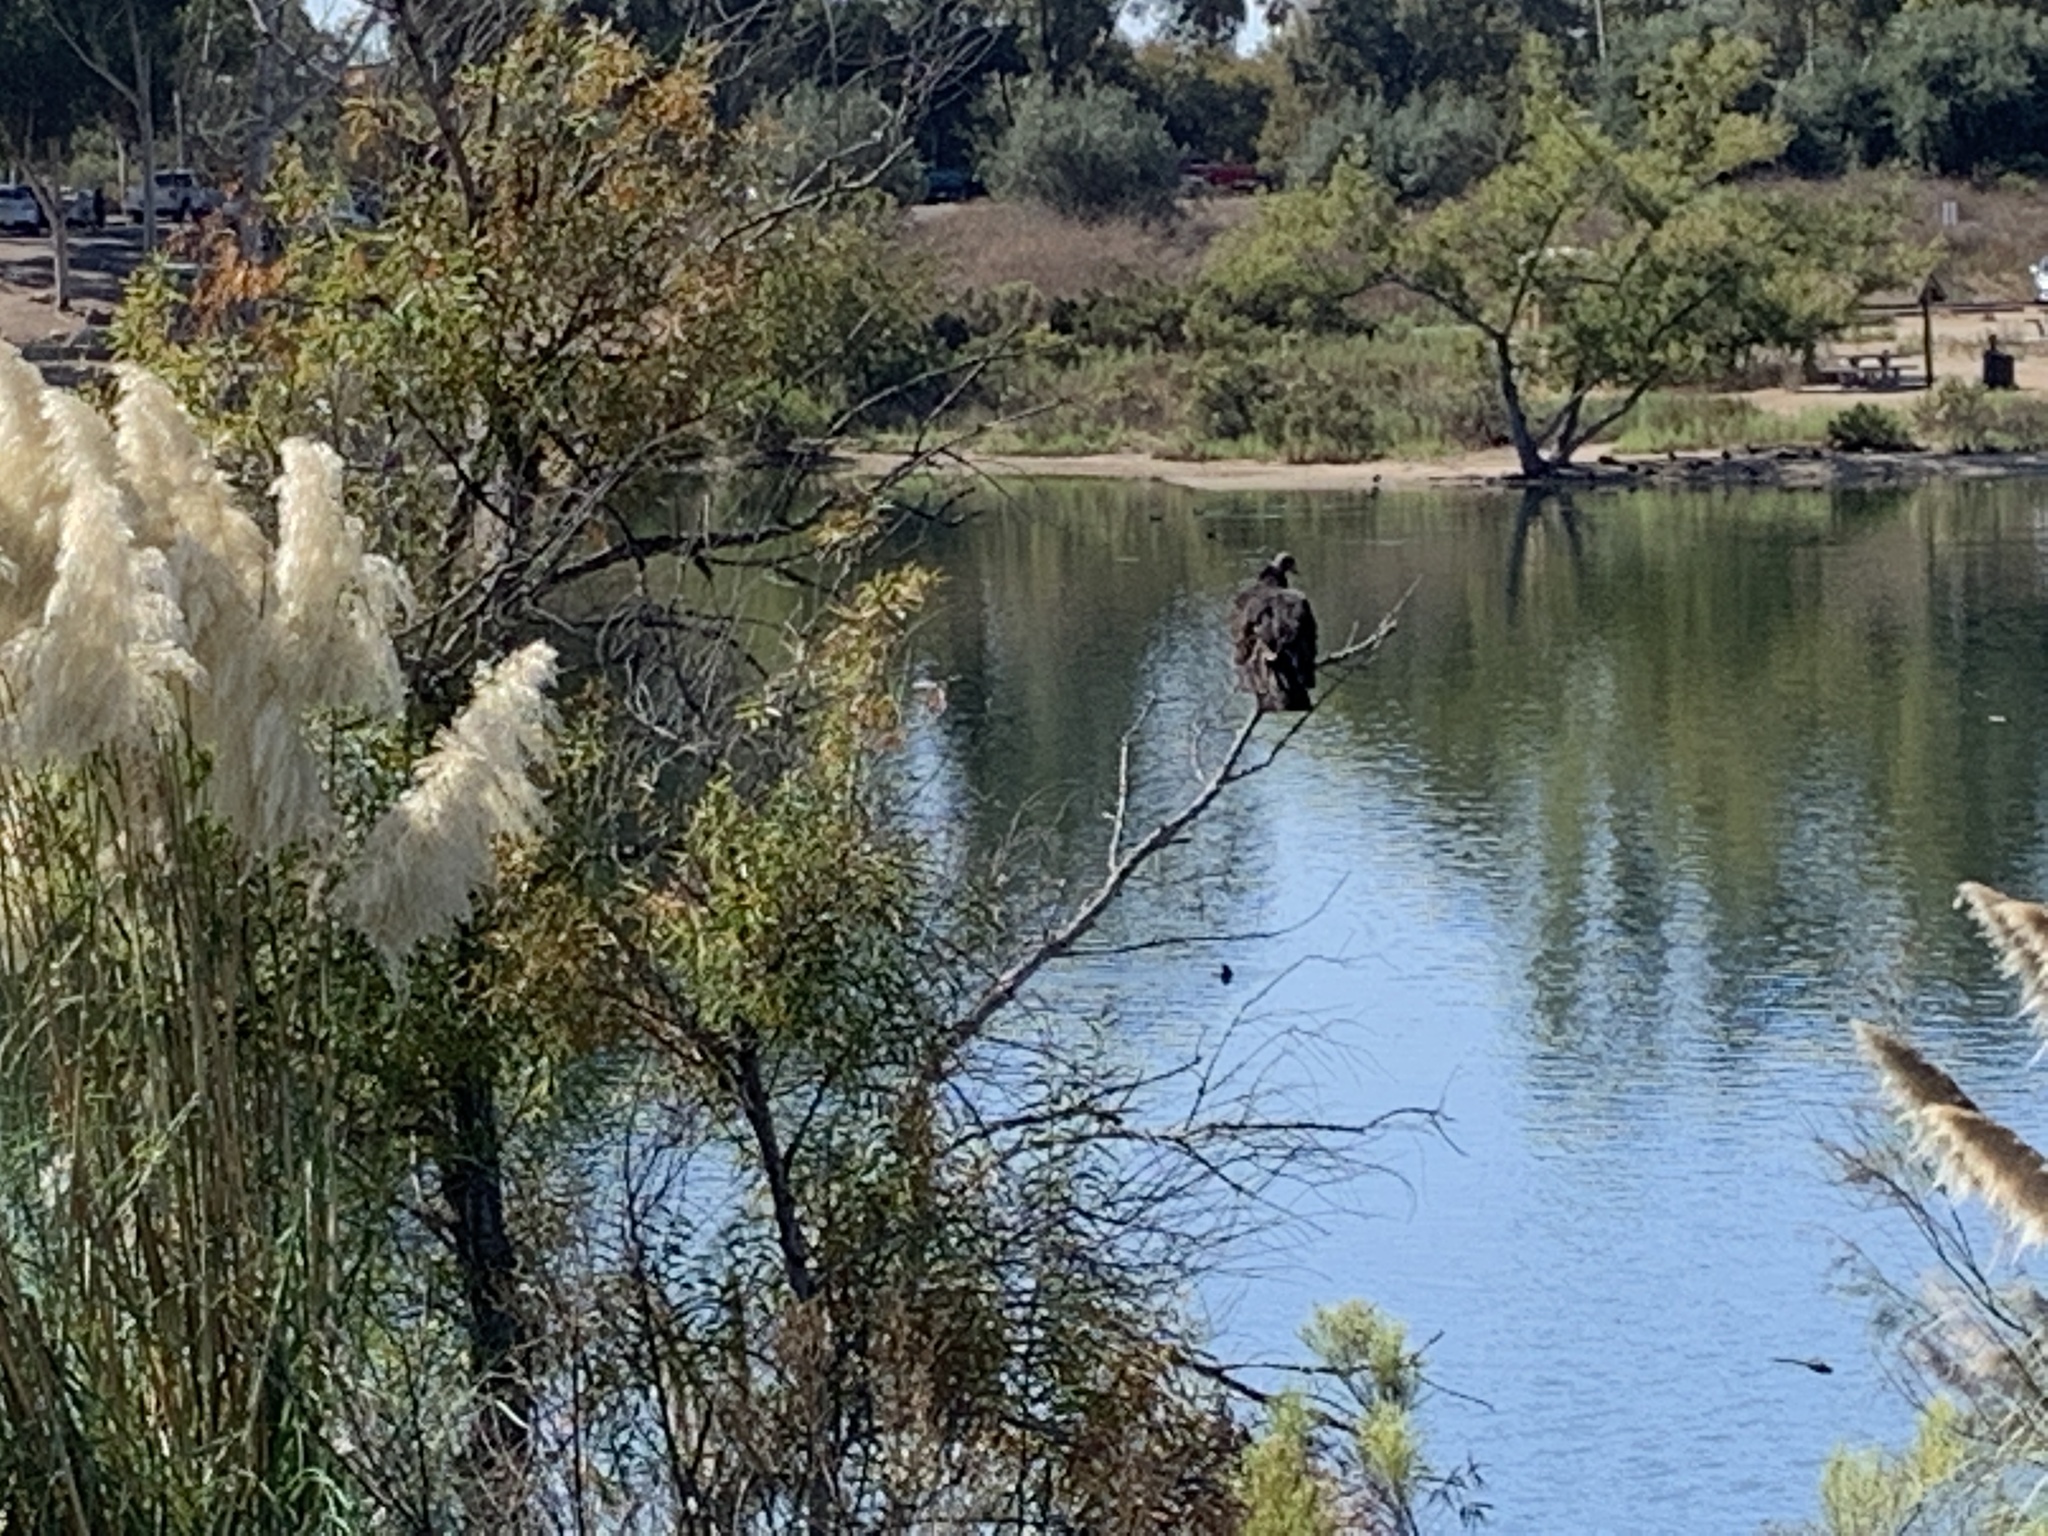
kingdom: Animalia
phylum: Chordata
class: Aves
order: Accipitriformes
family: Cathartidae
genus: Cathartes
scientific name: Cathartes aura
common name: Turkey vulture
